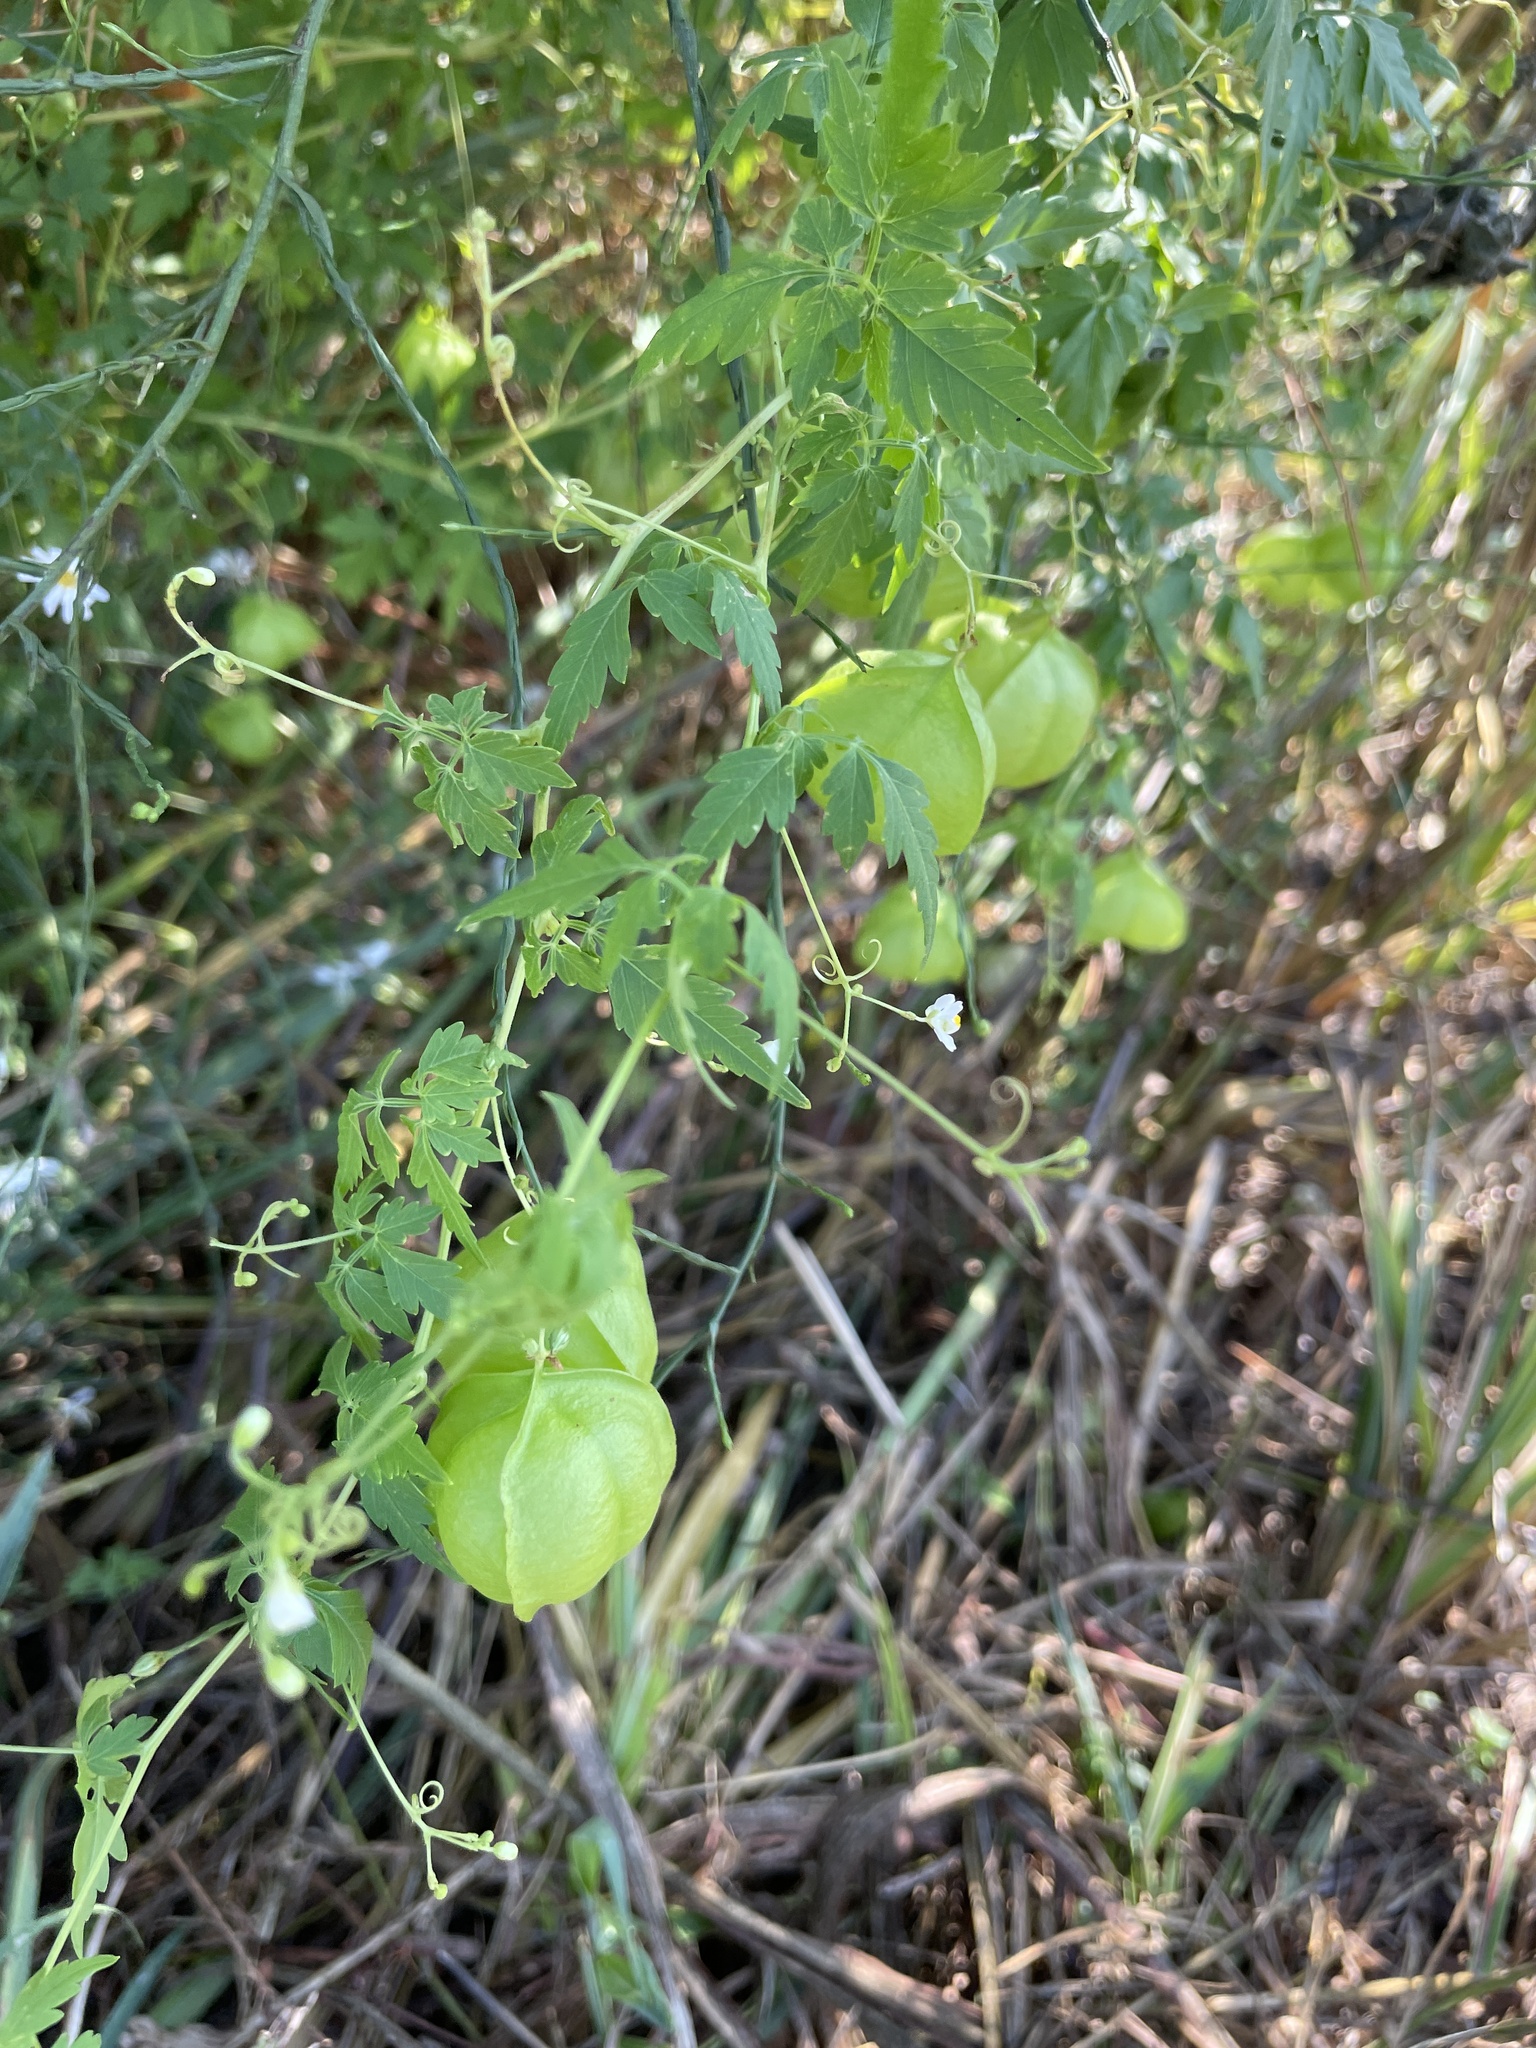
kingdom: Plantae
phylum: Tracheophyta
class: Magnoliopsida
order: Sapindales
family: Sapindaceae
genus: Cardiospermum
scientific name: Cardiospermum halicacabum
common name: Balloon vine
